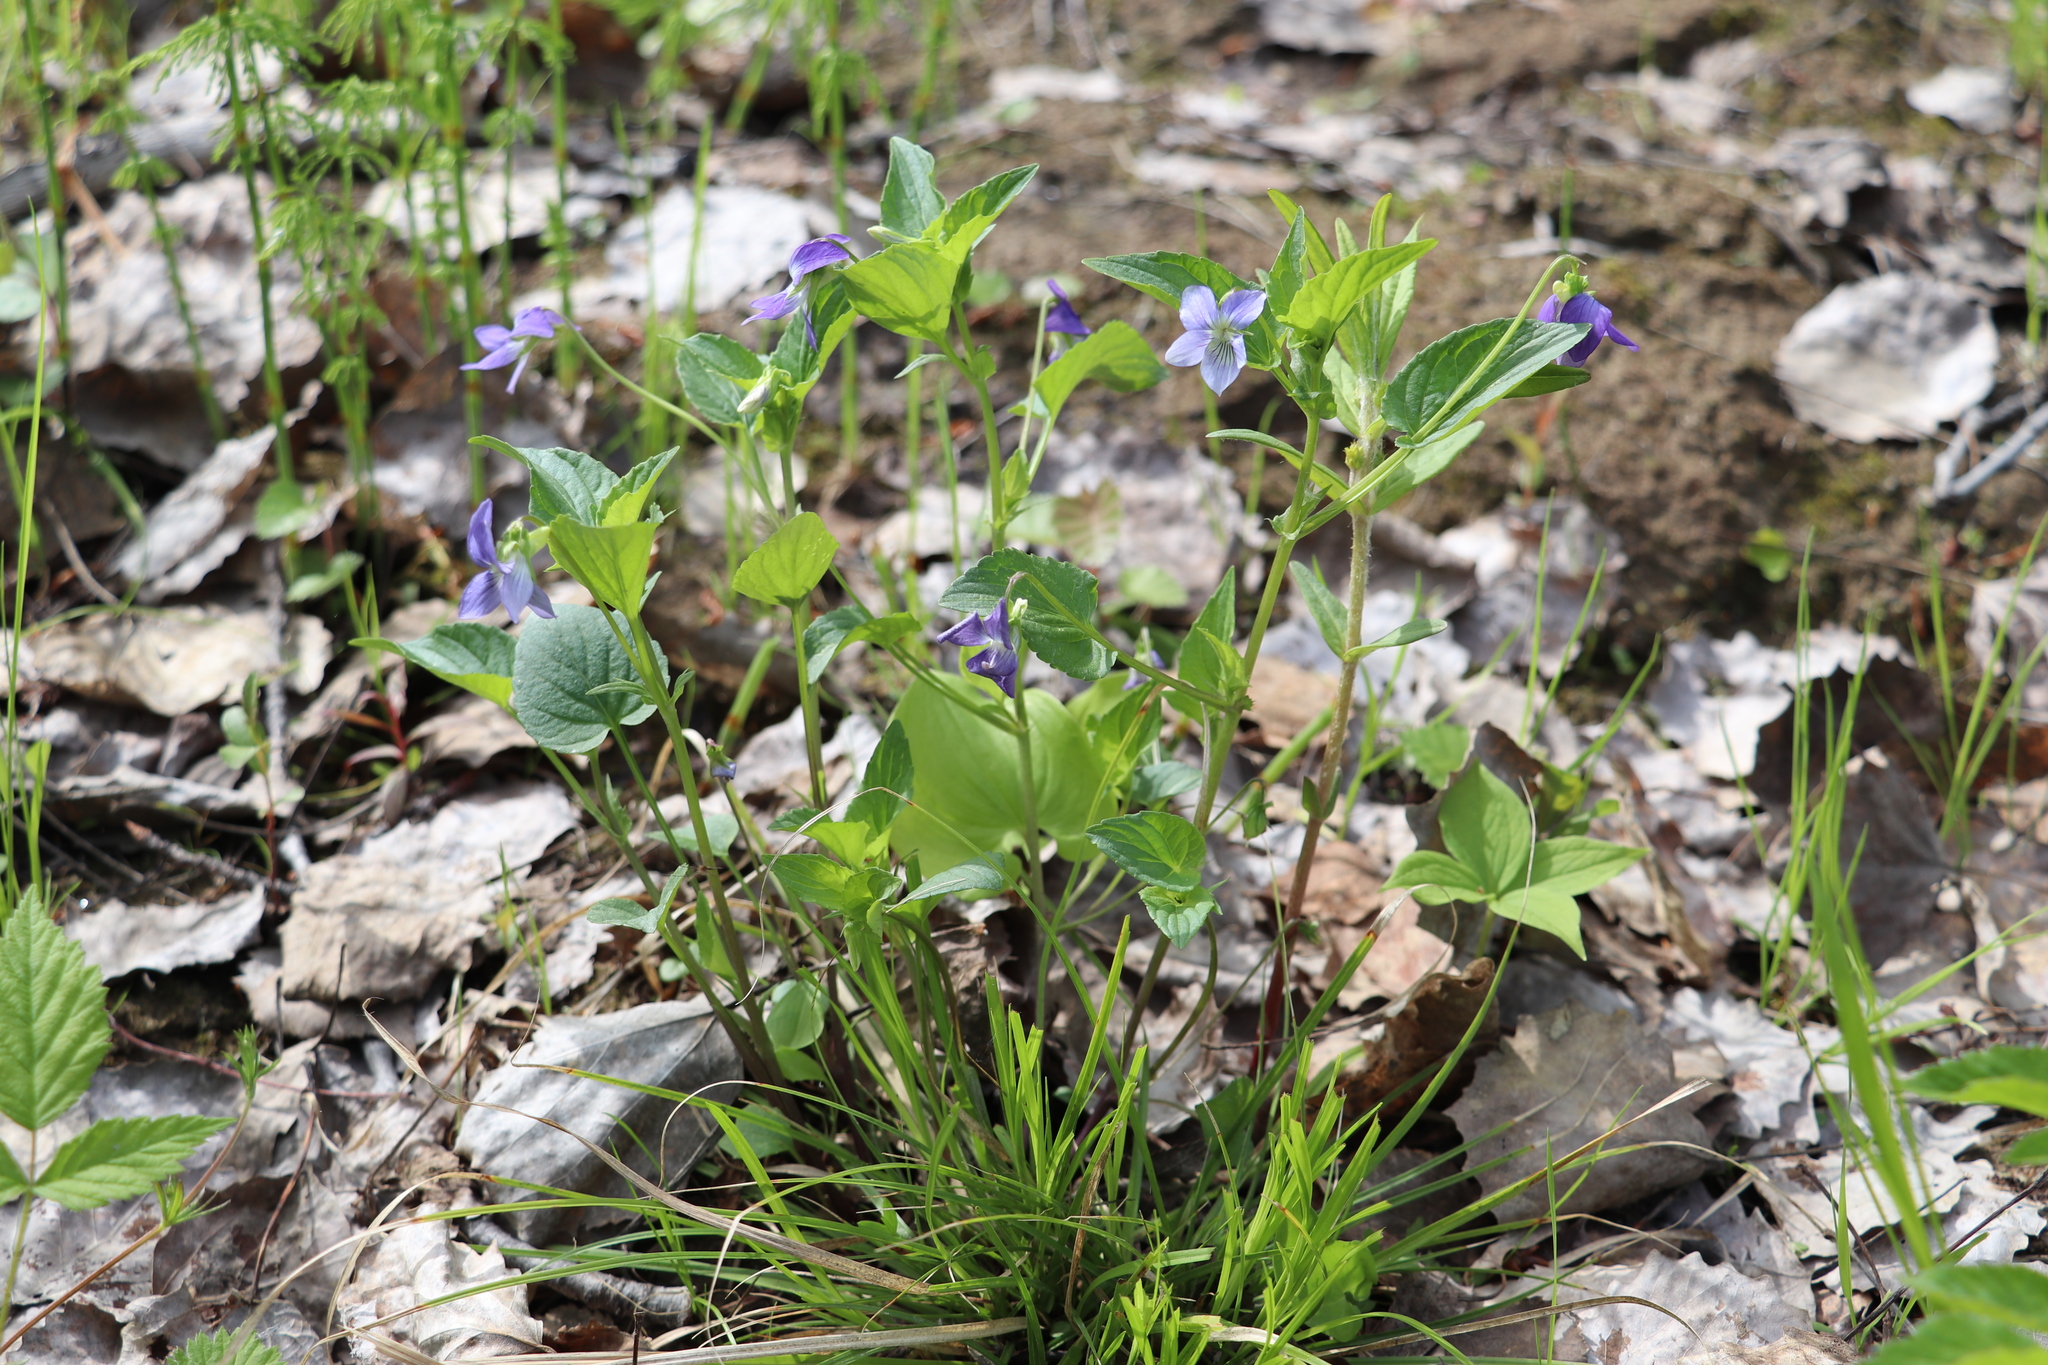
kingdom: Plantae
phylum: Tracheophyta
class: Magnoliopsida
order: Malpighiales
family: Violaceae
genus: Viola
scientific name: Viola canina
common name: Heath dog-violet
